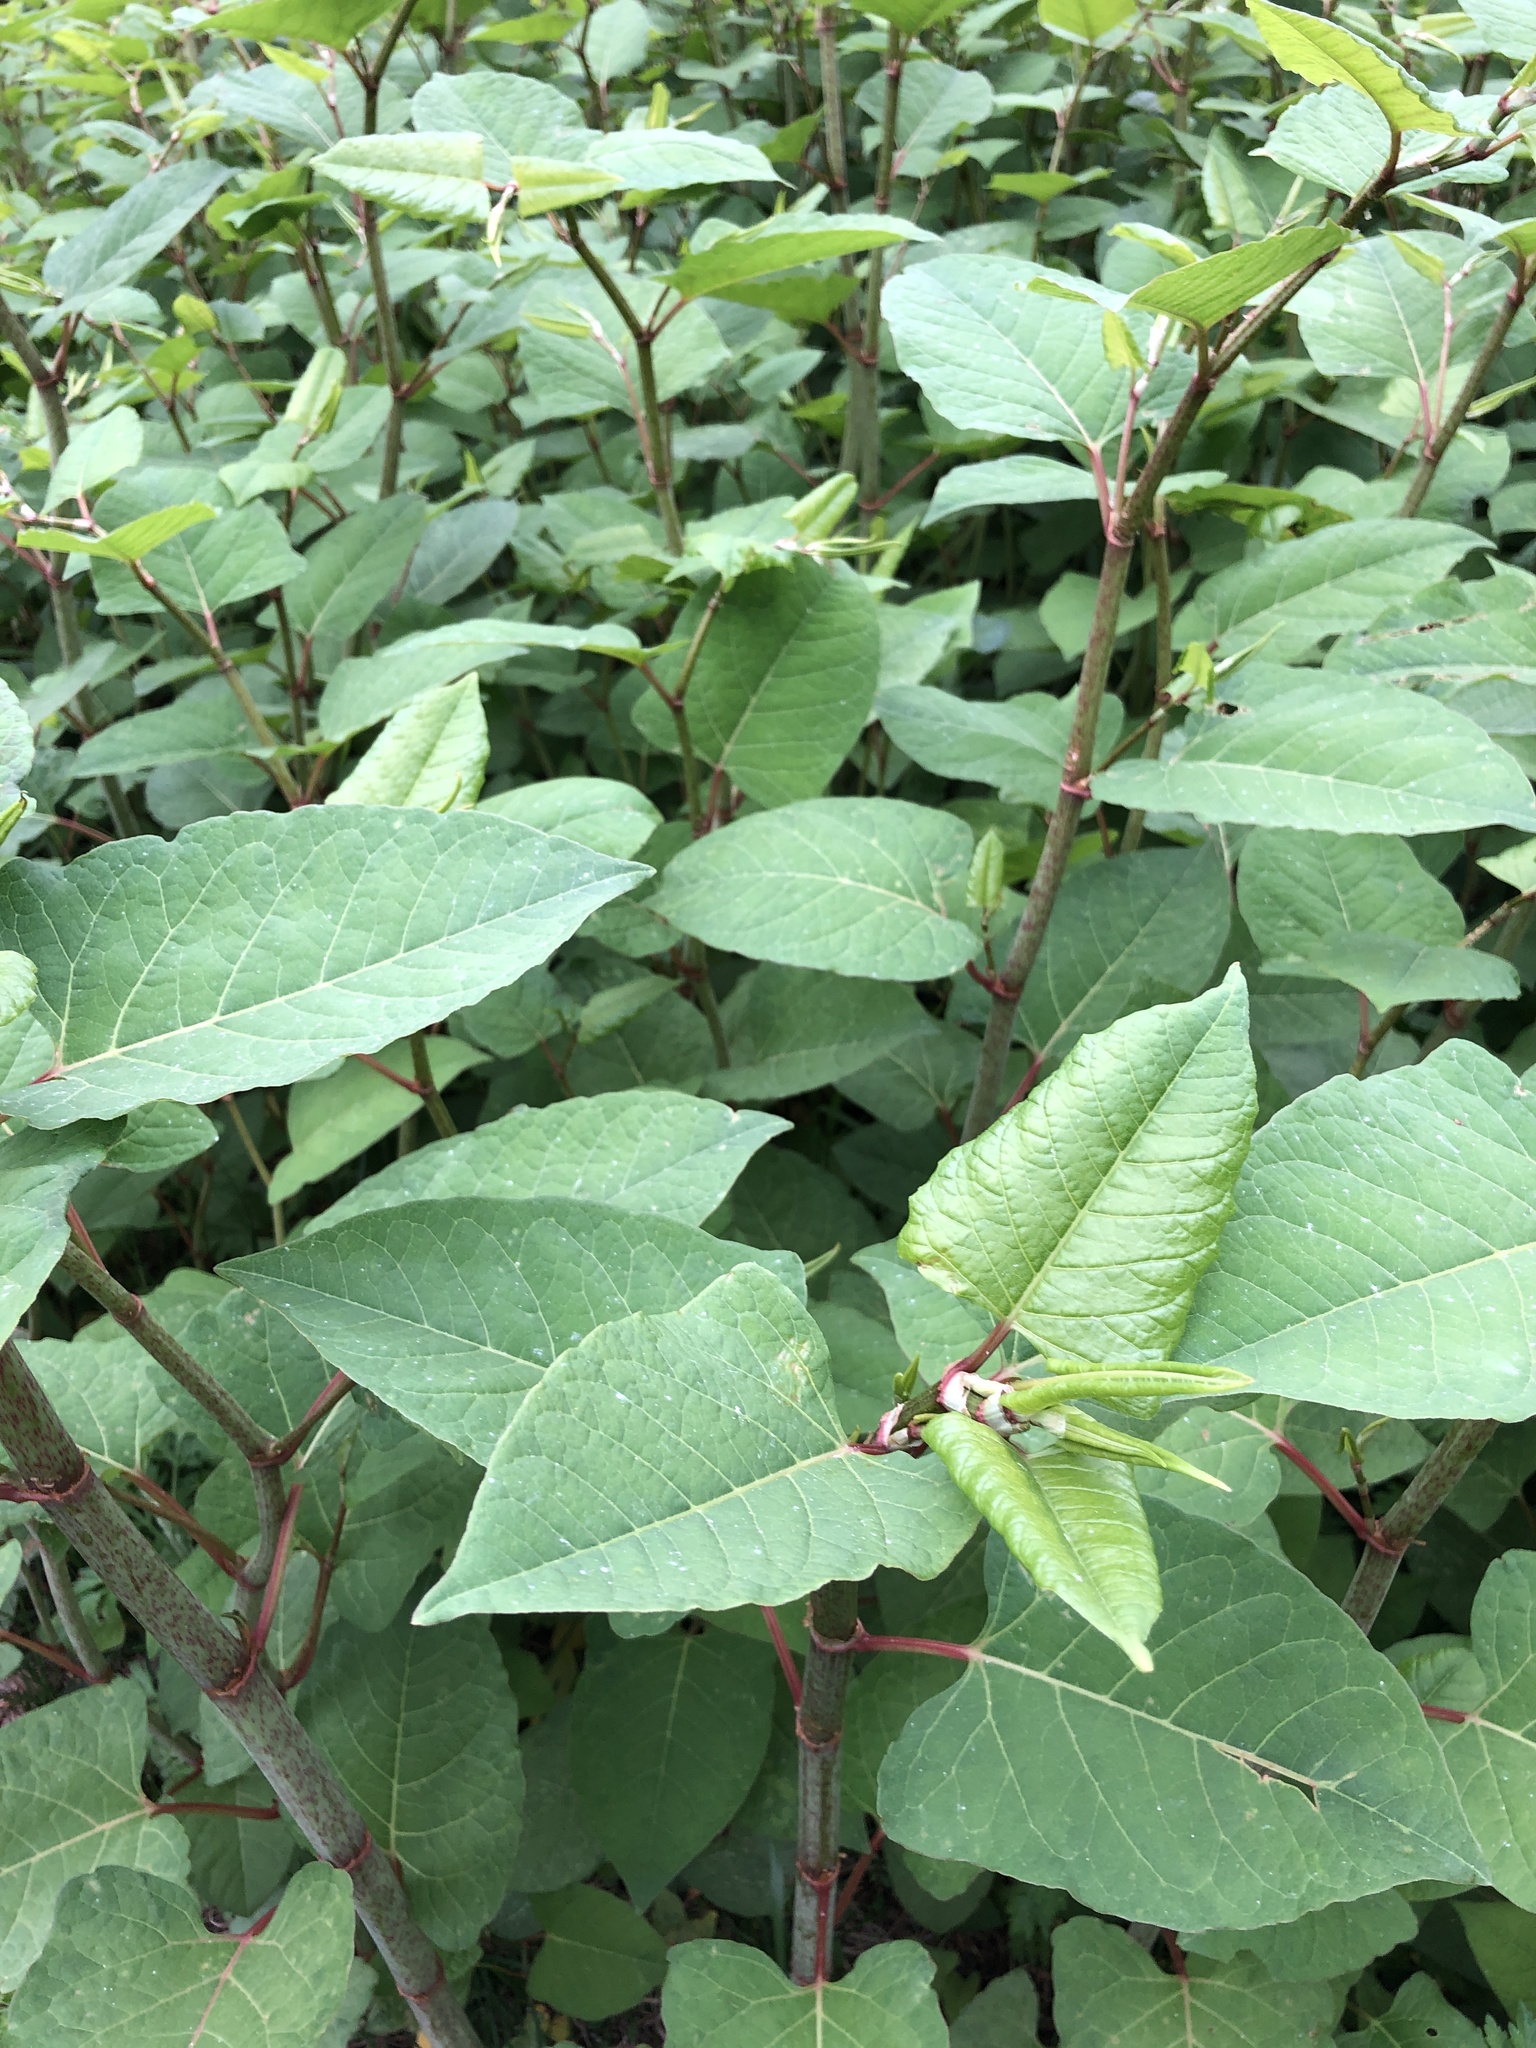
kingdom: Plantae
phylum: Tracheophyta
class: Magnoliopsida
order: Caryophyllales
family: Polygonaceae
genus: Reynoutria
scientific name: Reynoutria japonica
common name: Japanese knotweed
